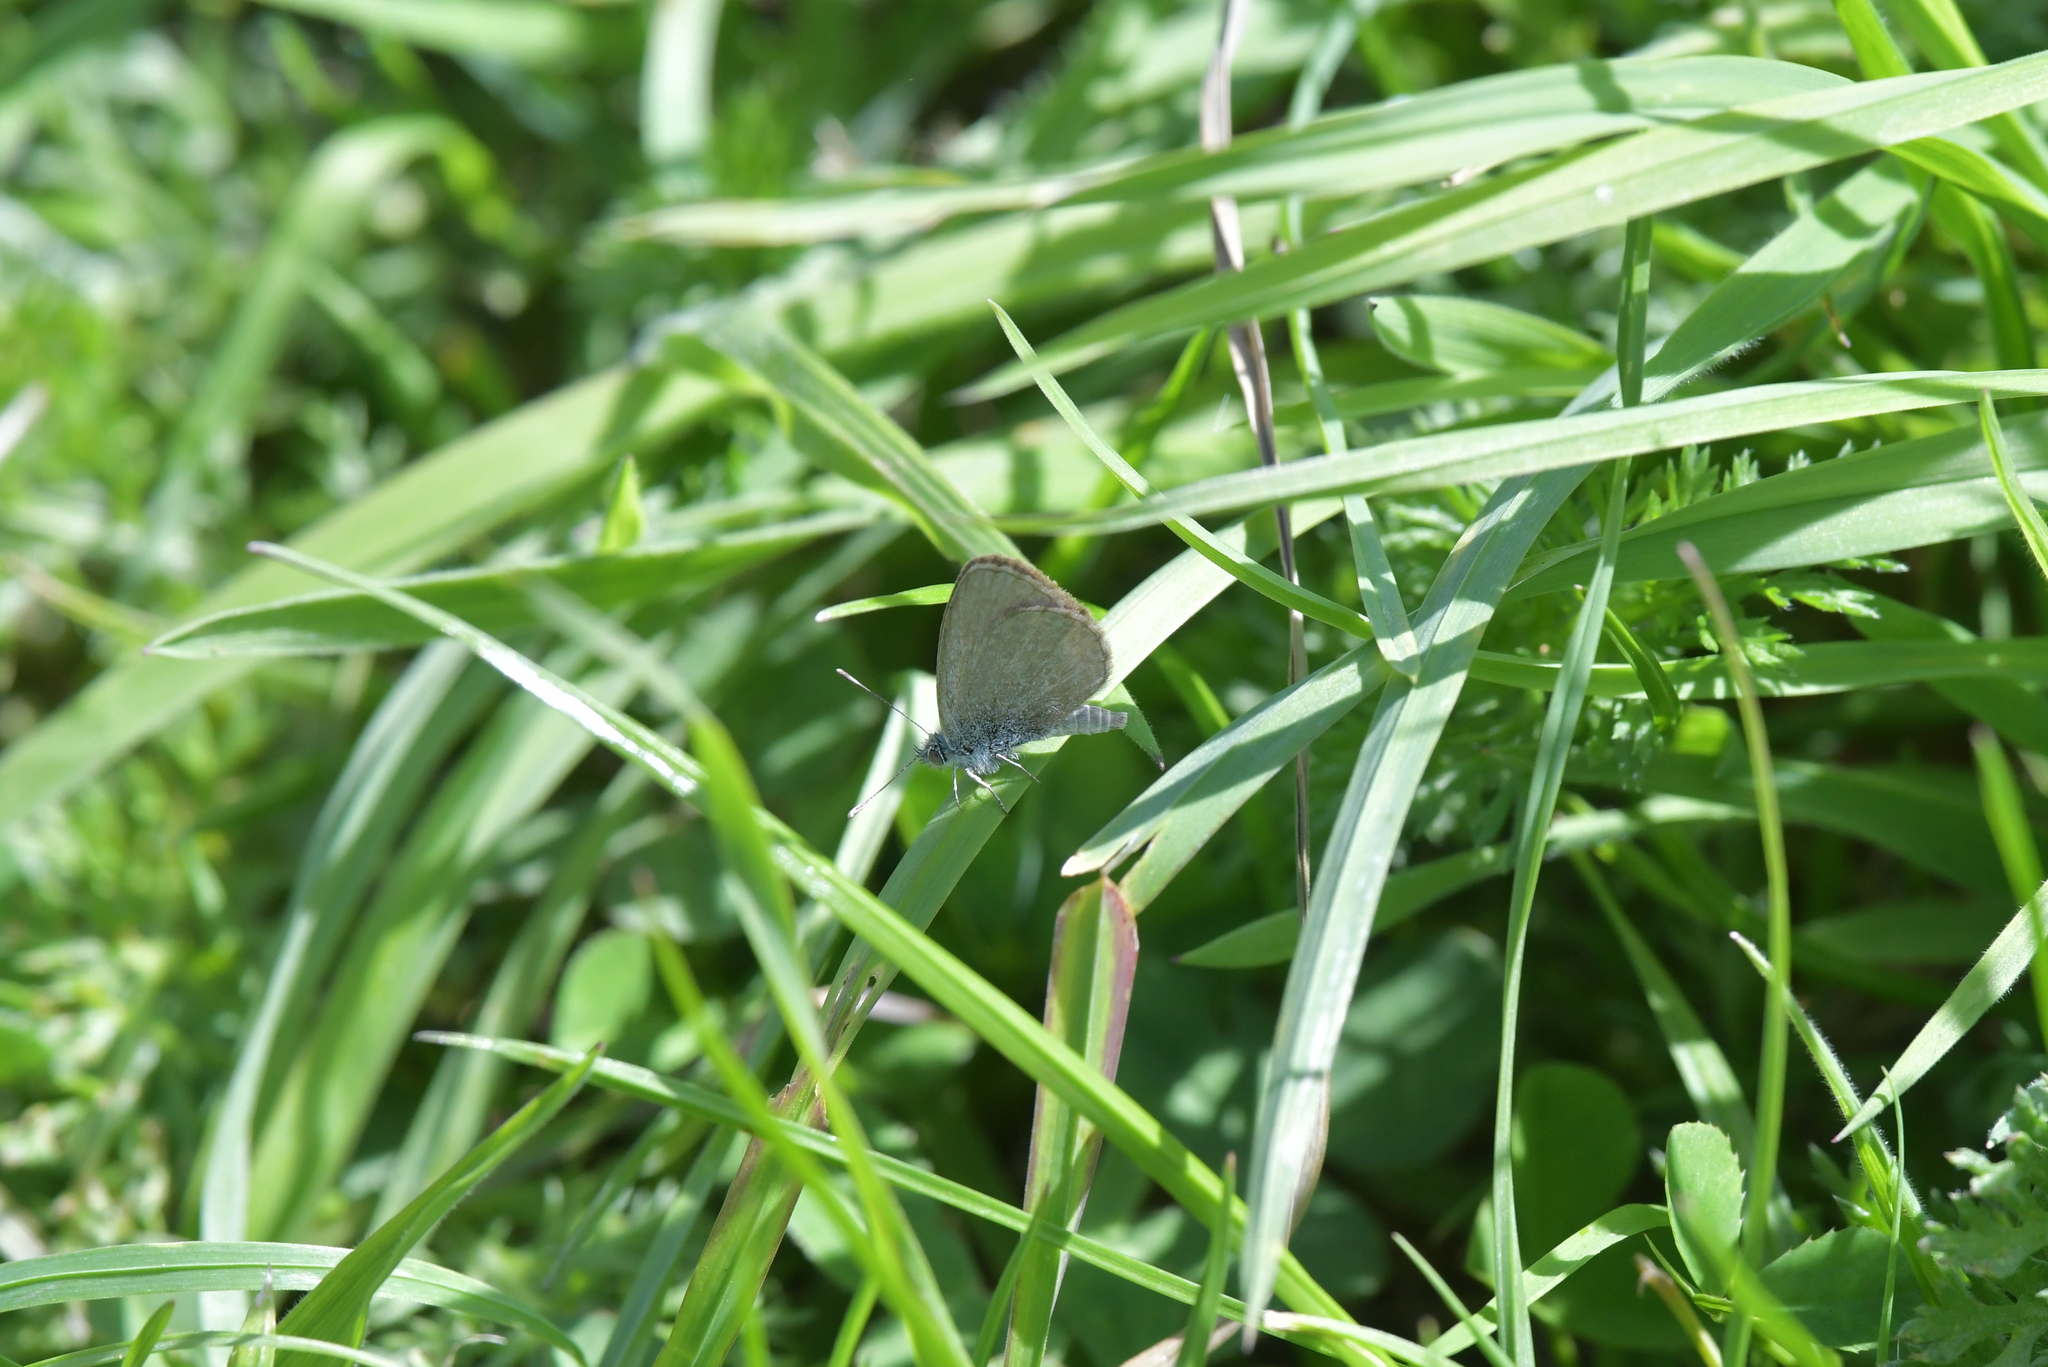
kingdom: Animalia
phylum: Arthropoda
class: Insecta
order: Lepidoptera
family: Lycaenidae
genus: Zizina
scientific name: Zizina labradus
